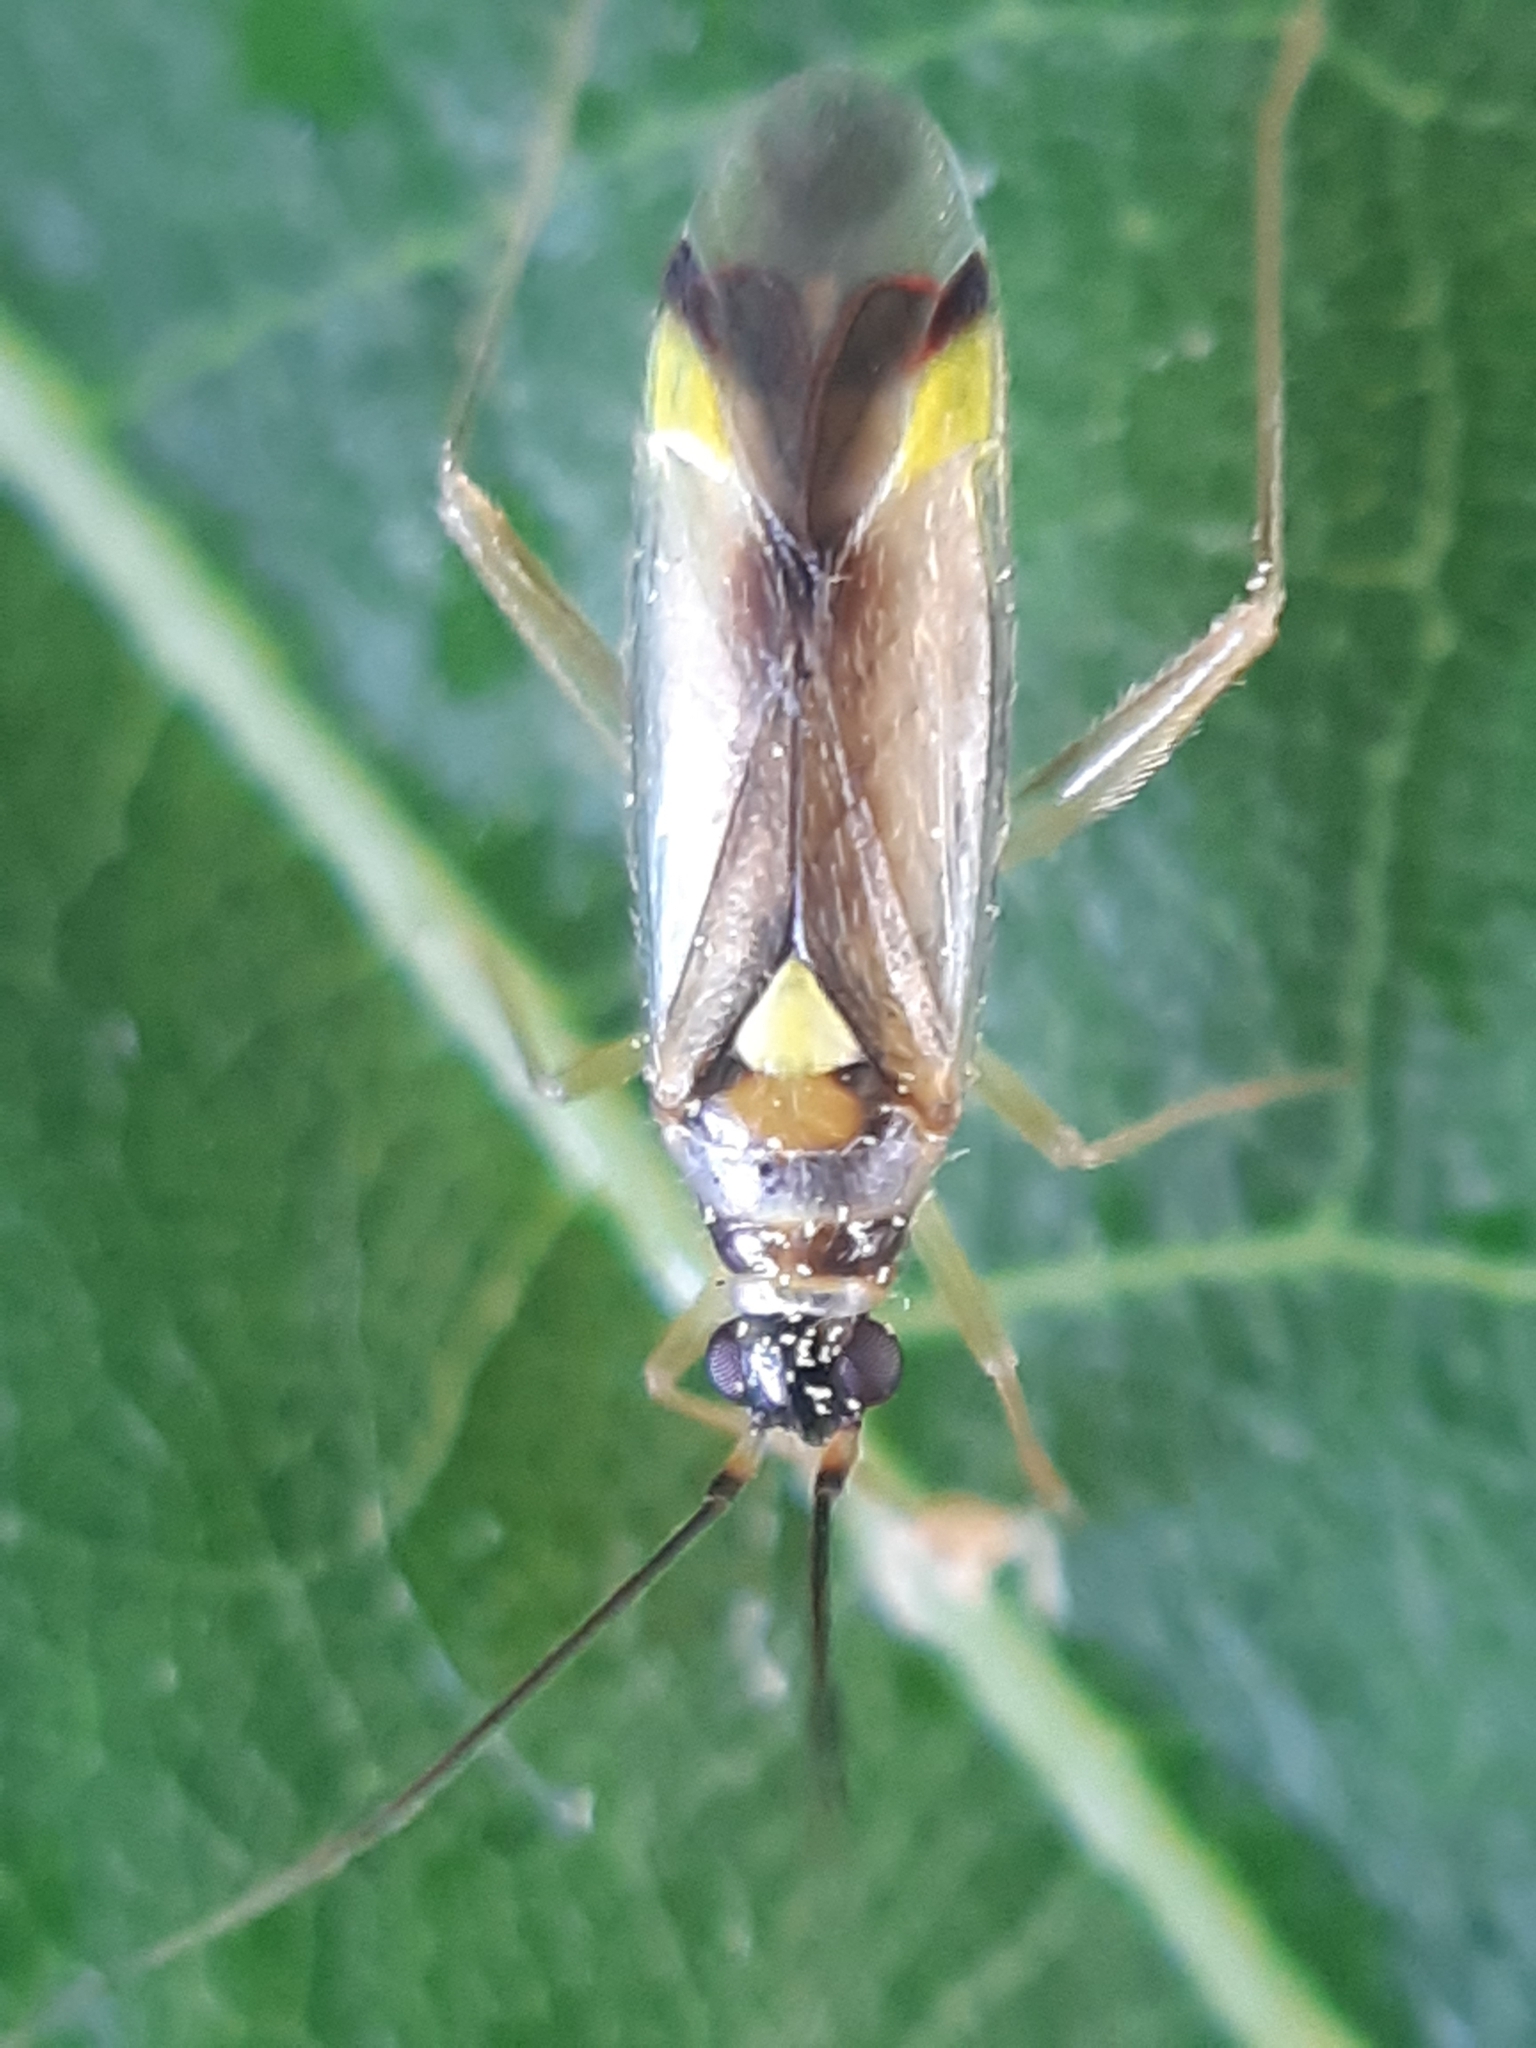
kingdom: Animalia
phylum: Arthropoda
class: Insecta
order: Hemiptera
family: Miridae
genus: Campyloneura
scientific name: Campyloneura virgula
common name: Predatory bug
